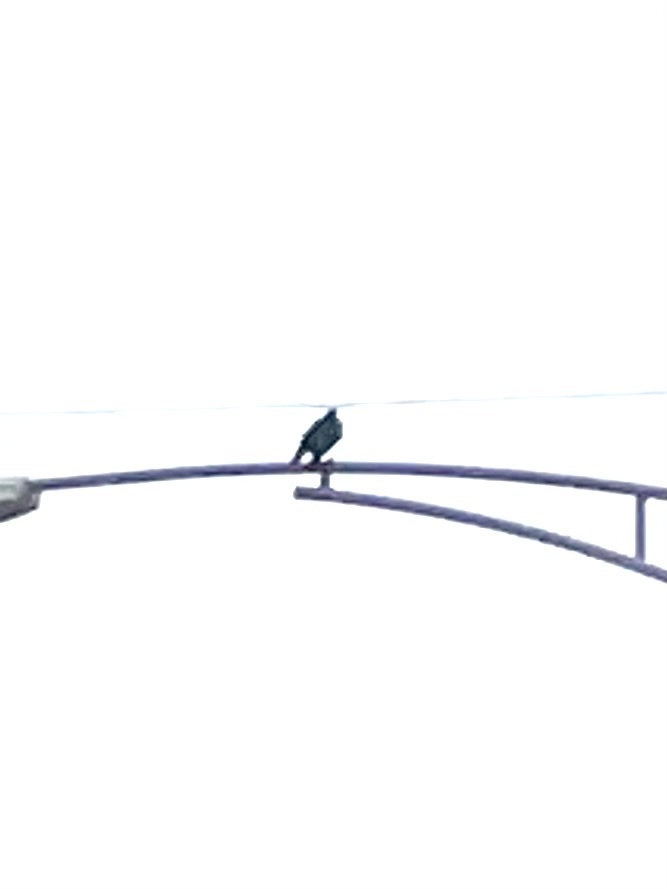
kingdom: Animalia
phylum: Chordata
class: Aves
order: Passeriformes
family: Corvidae
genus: Corvus
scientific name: Corvus brachyrhynchos
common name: American crow
